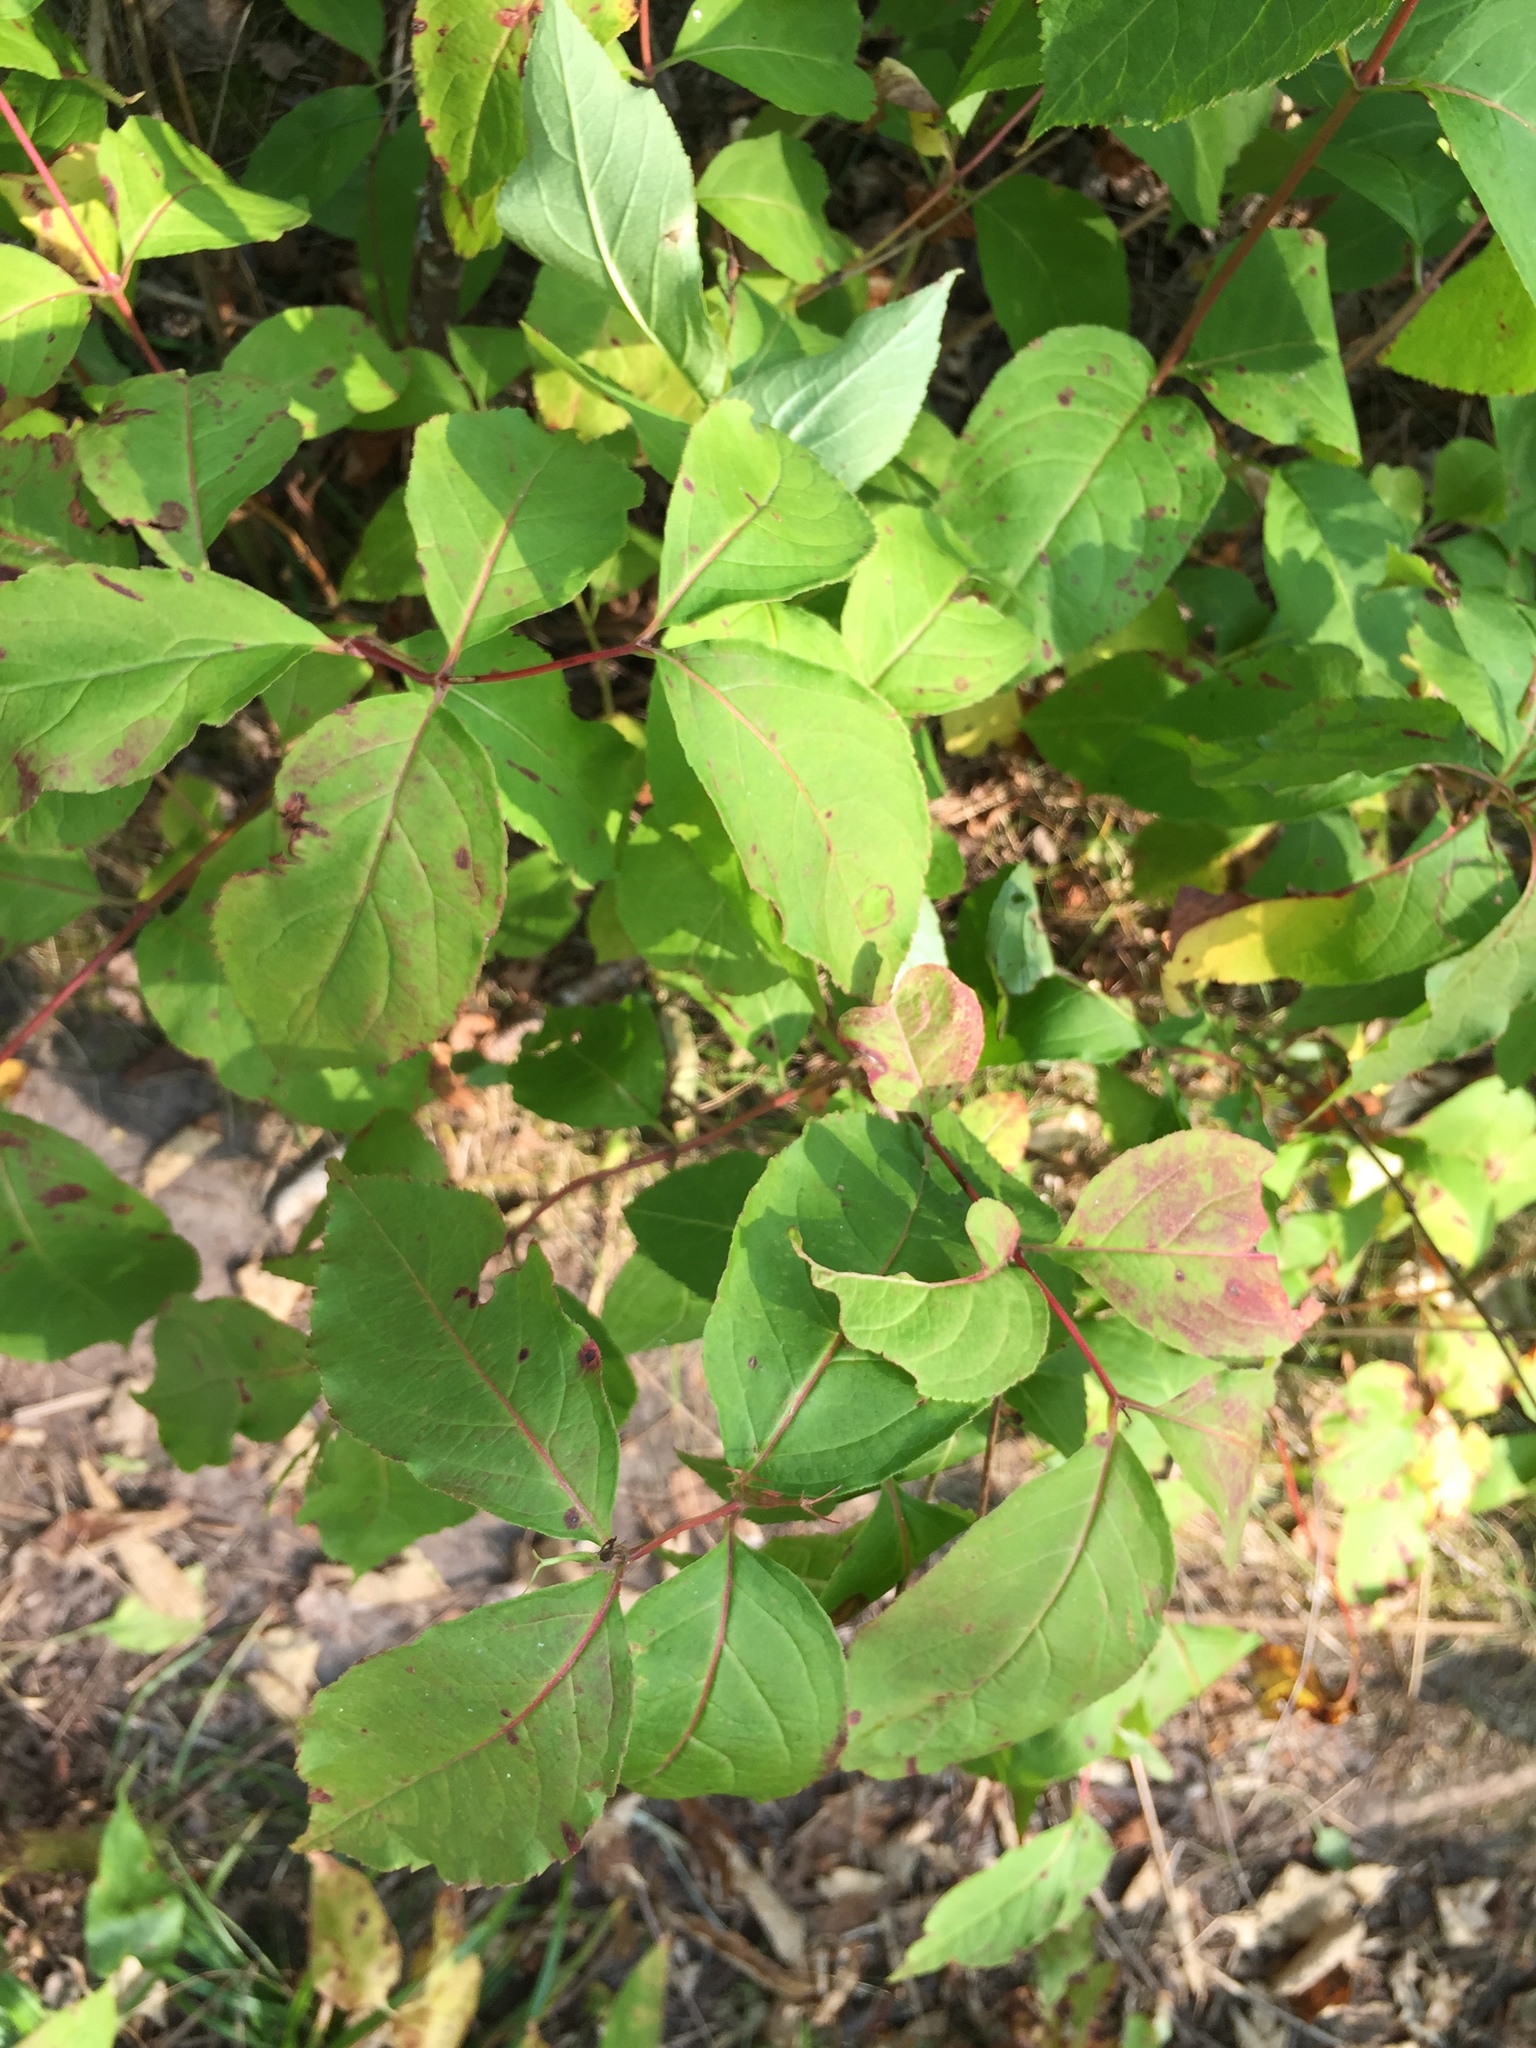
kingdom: Plantae
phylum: Tracheophyta
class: Magnoliopsida
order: Dipsacales
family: Caprifoliaceae
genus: Diervilla
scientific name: Diervilla lonicera
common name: Bush-honeysuckle
